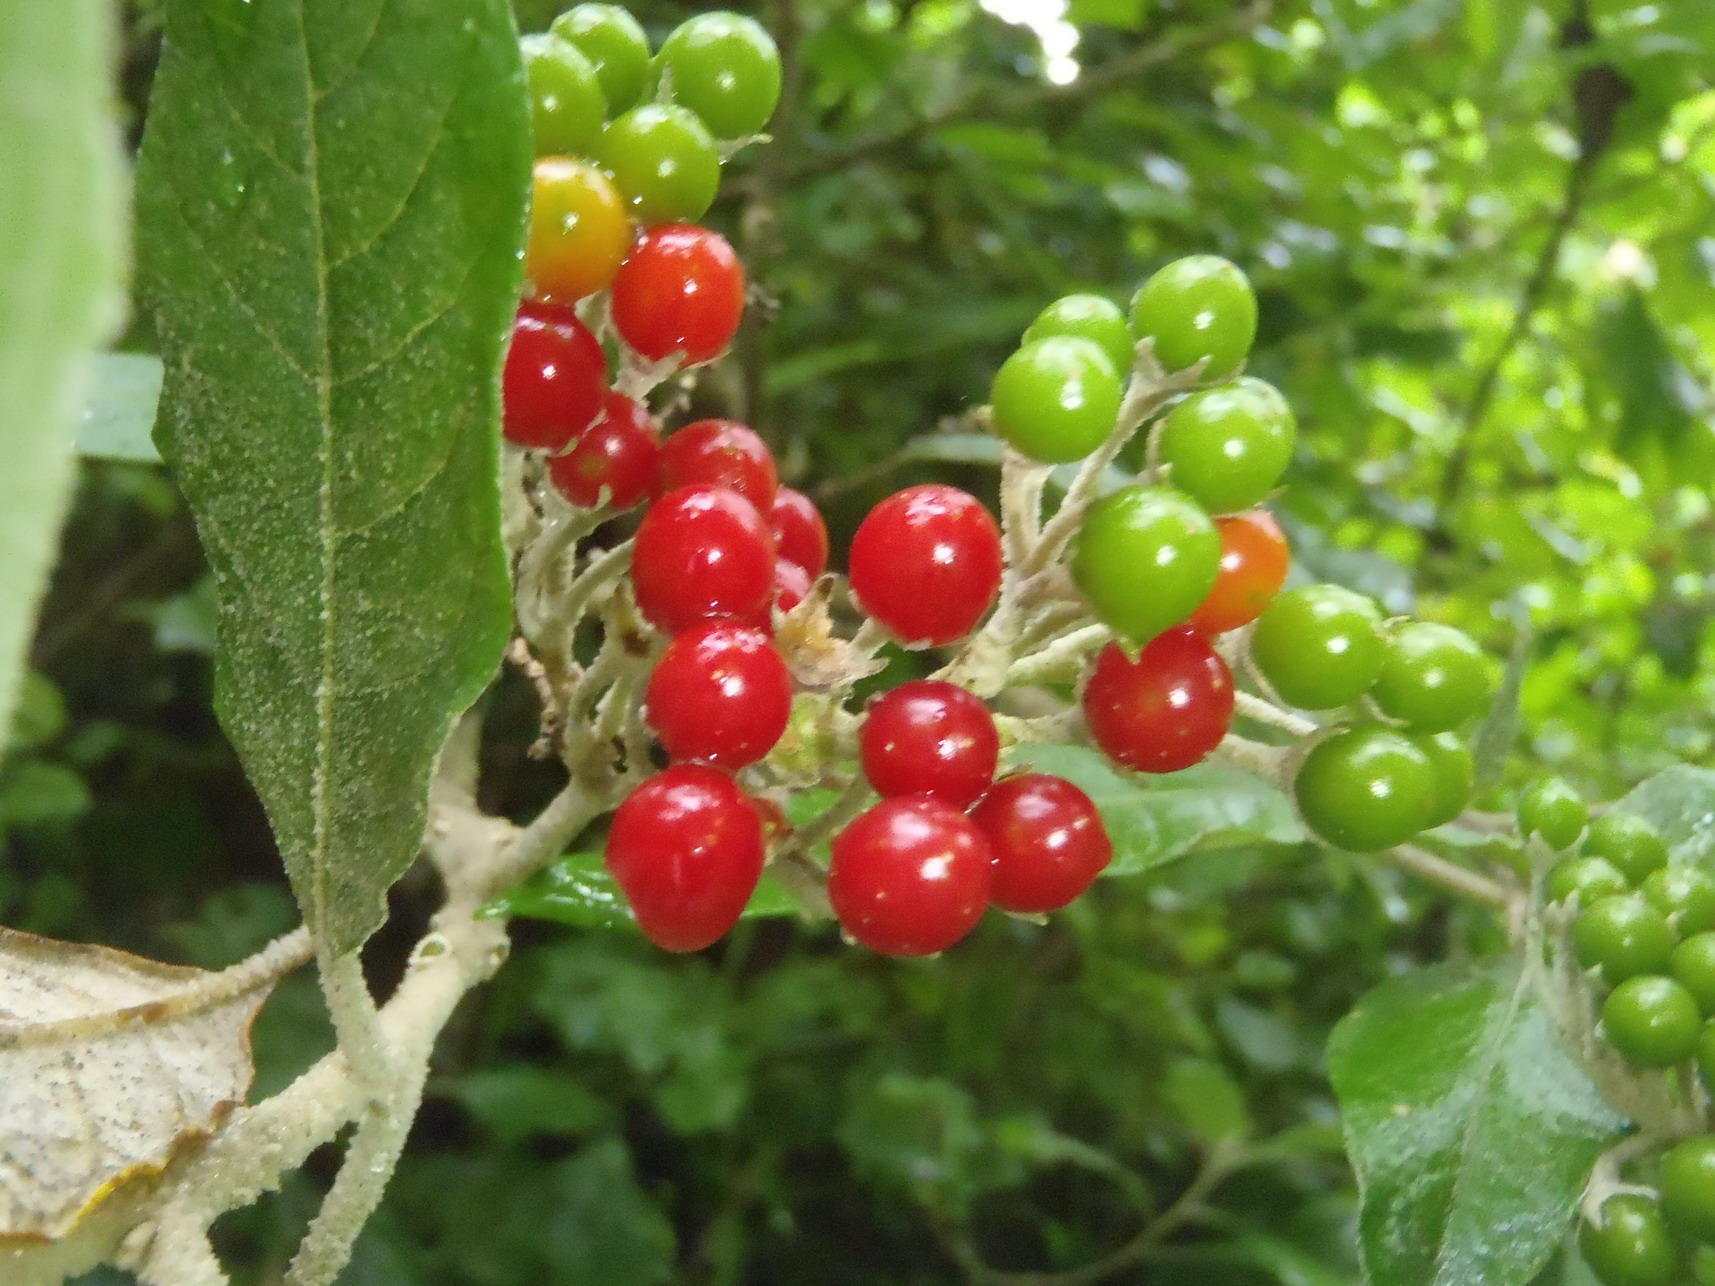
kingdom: Plantae
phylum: Tracheophyta
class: Magnoliopsida
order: Solanales
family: Solanaceae
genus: Solanum
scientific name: Solanum giganteum
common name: Healing-leaf-tree
